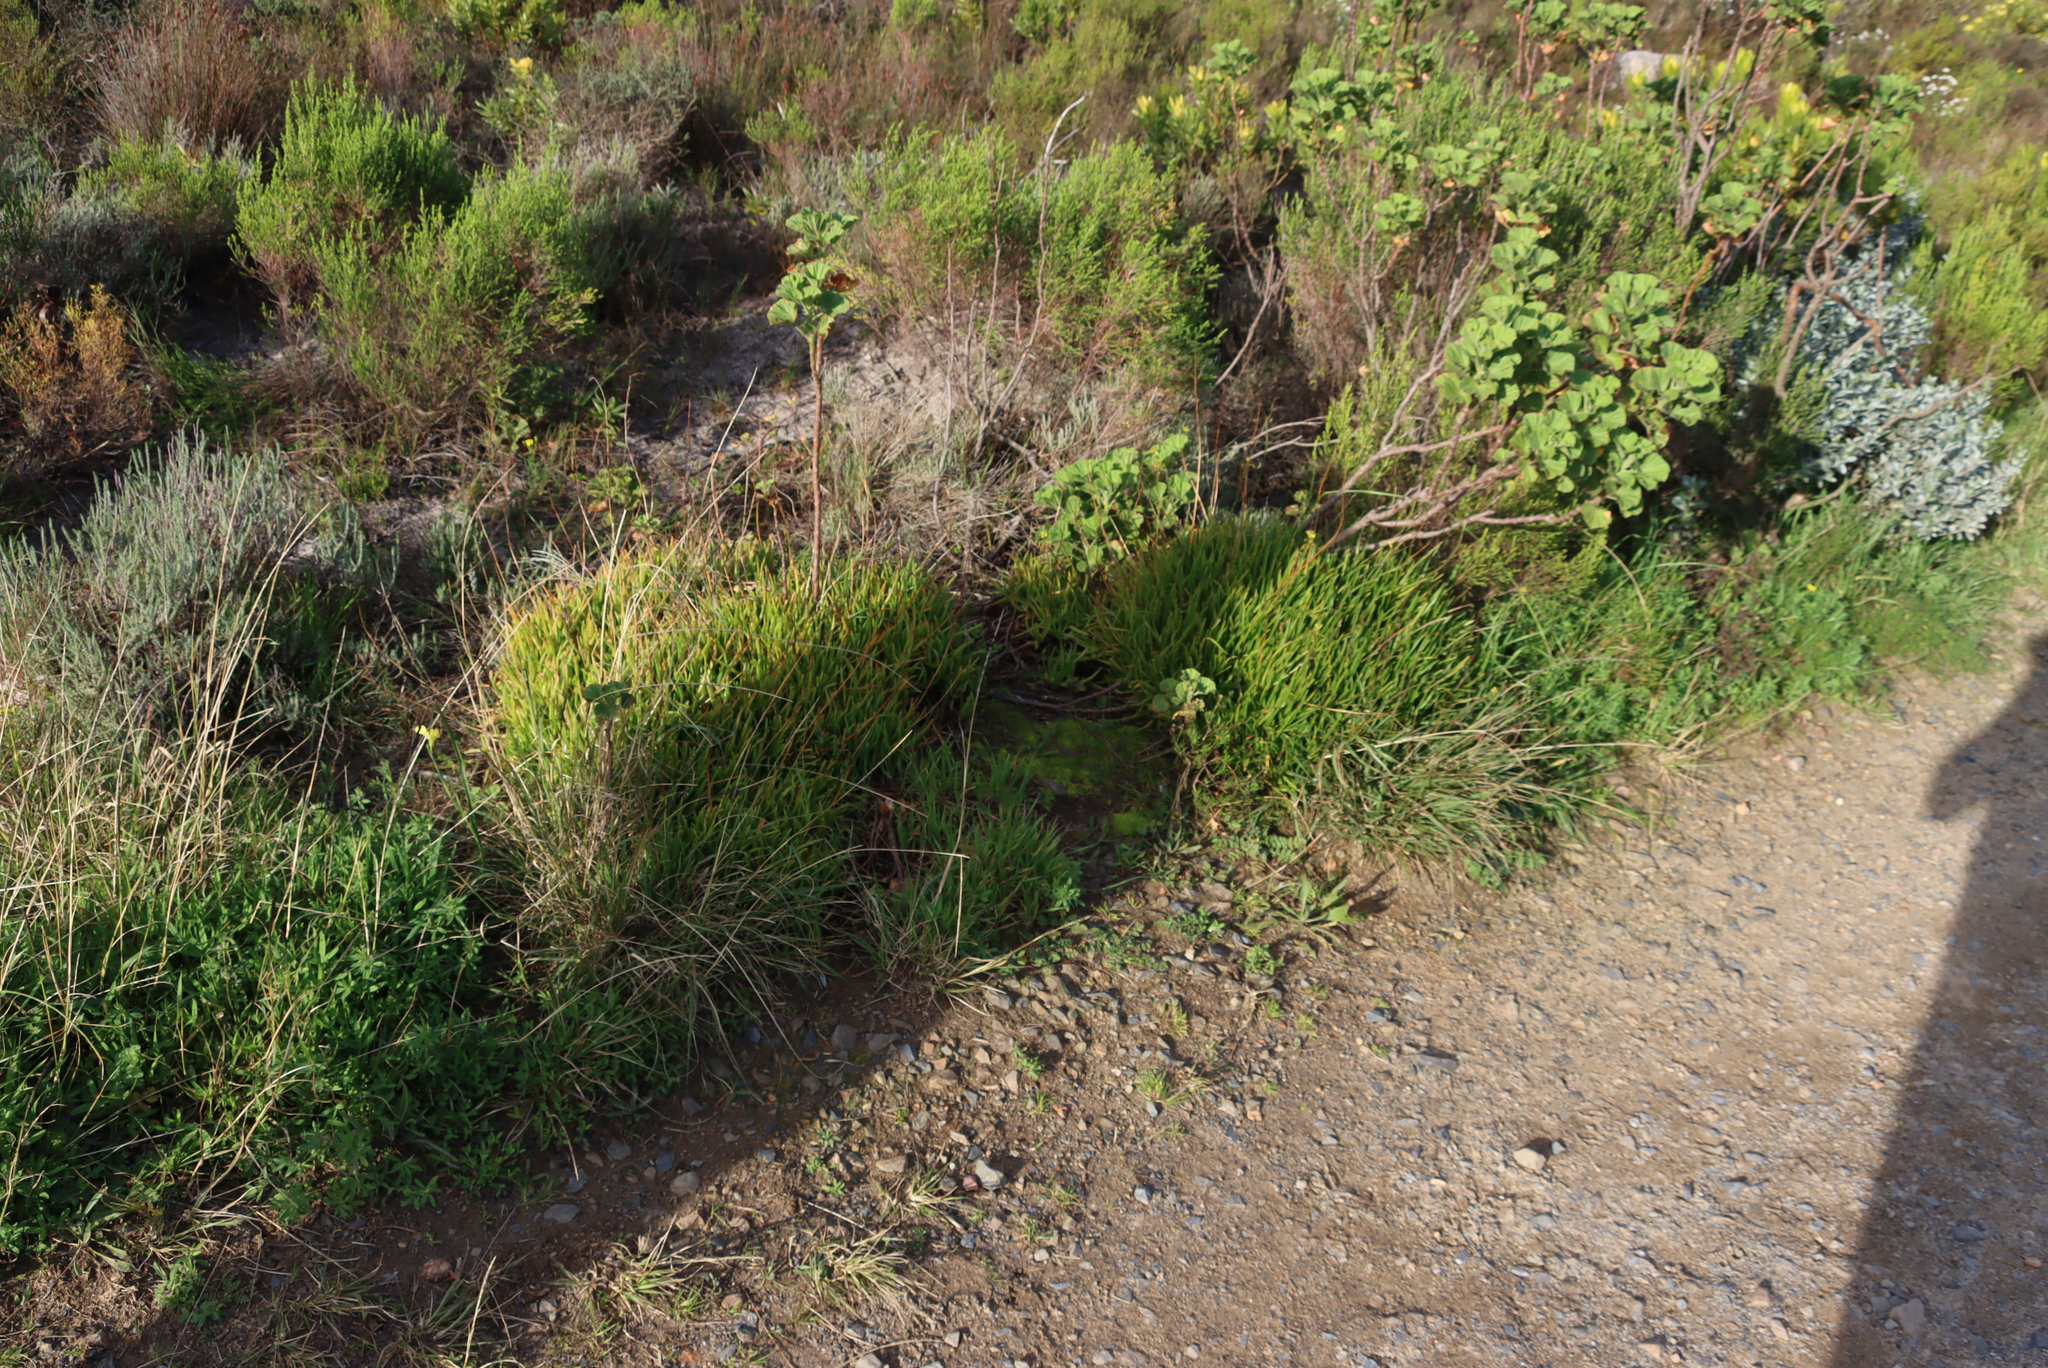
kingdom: Plantae
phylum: Tracheophyta
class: Liliopsida
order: Asparagales
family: Asphodelaceae
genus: Bulbine
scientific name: Bulbine frutescens
